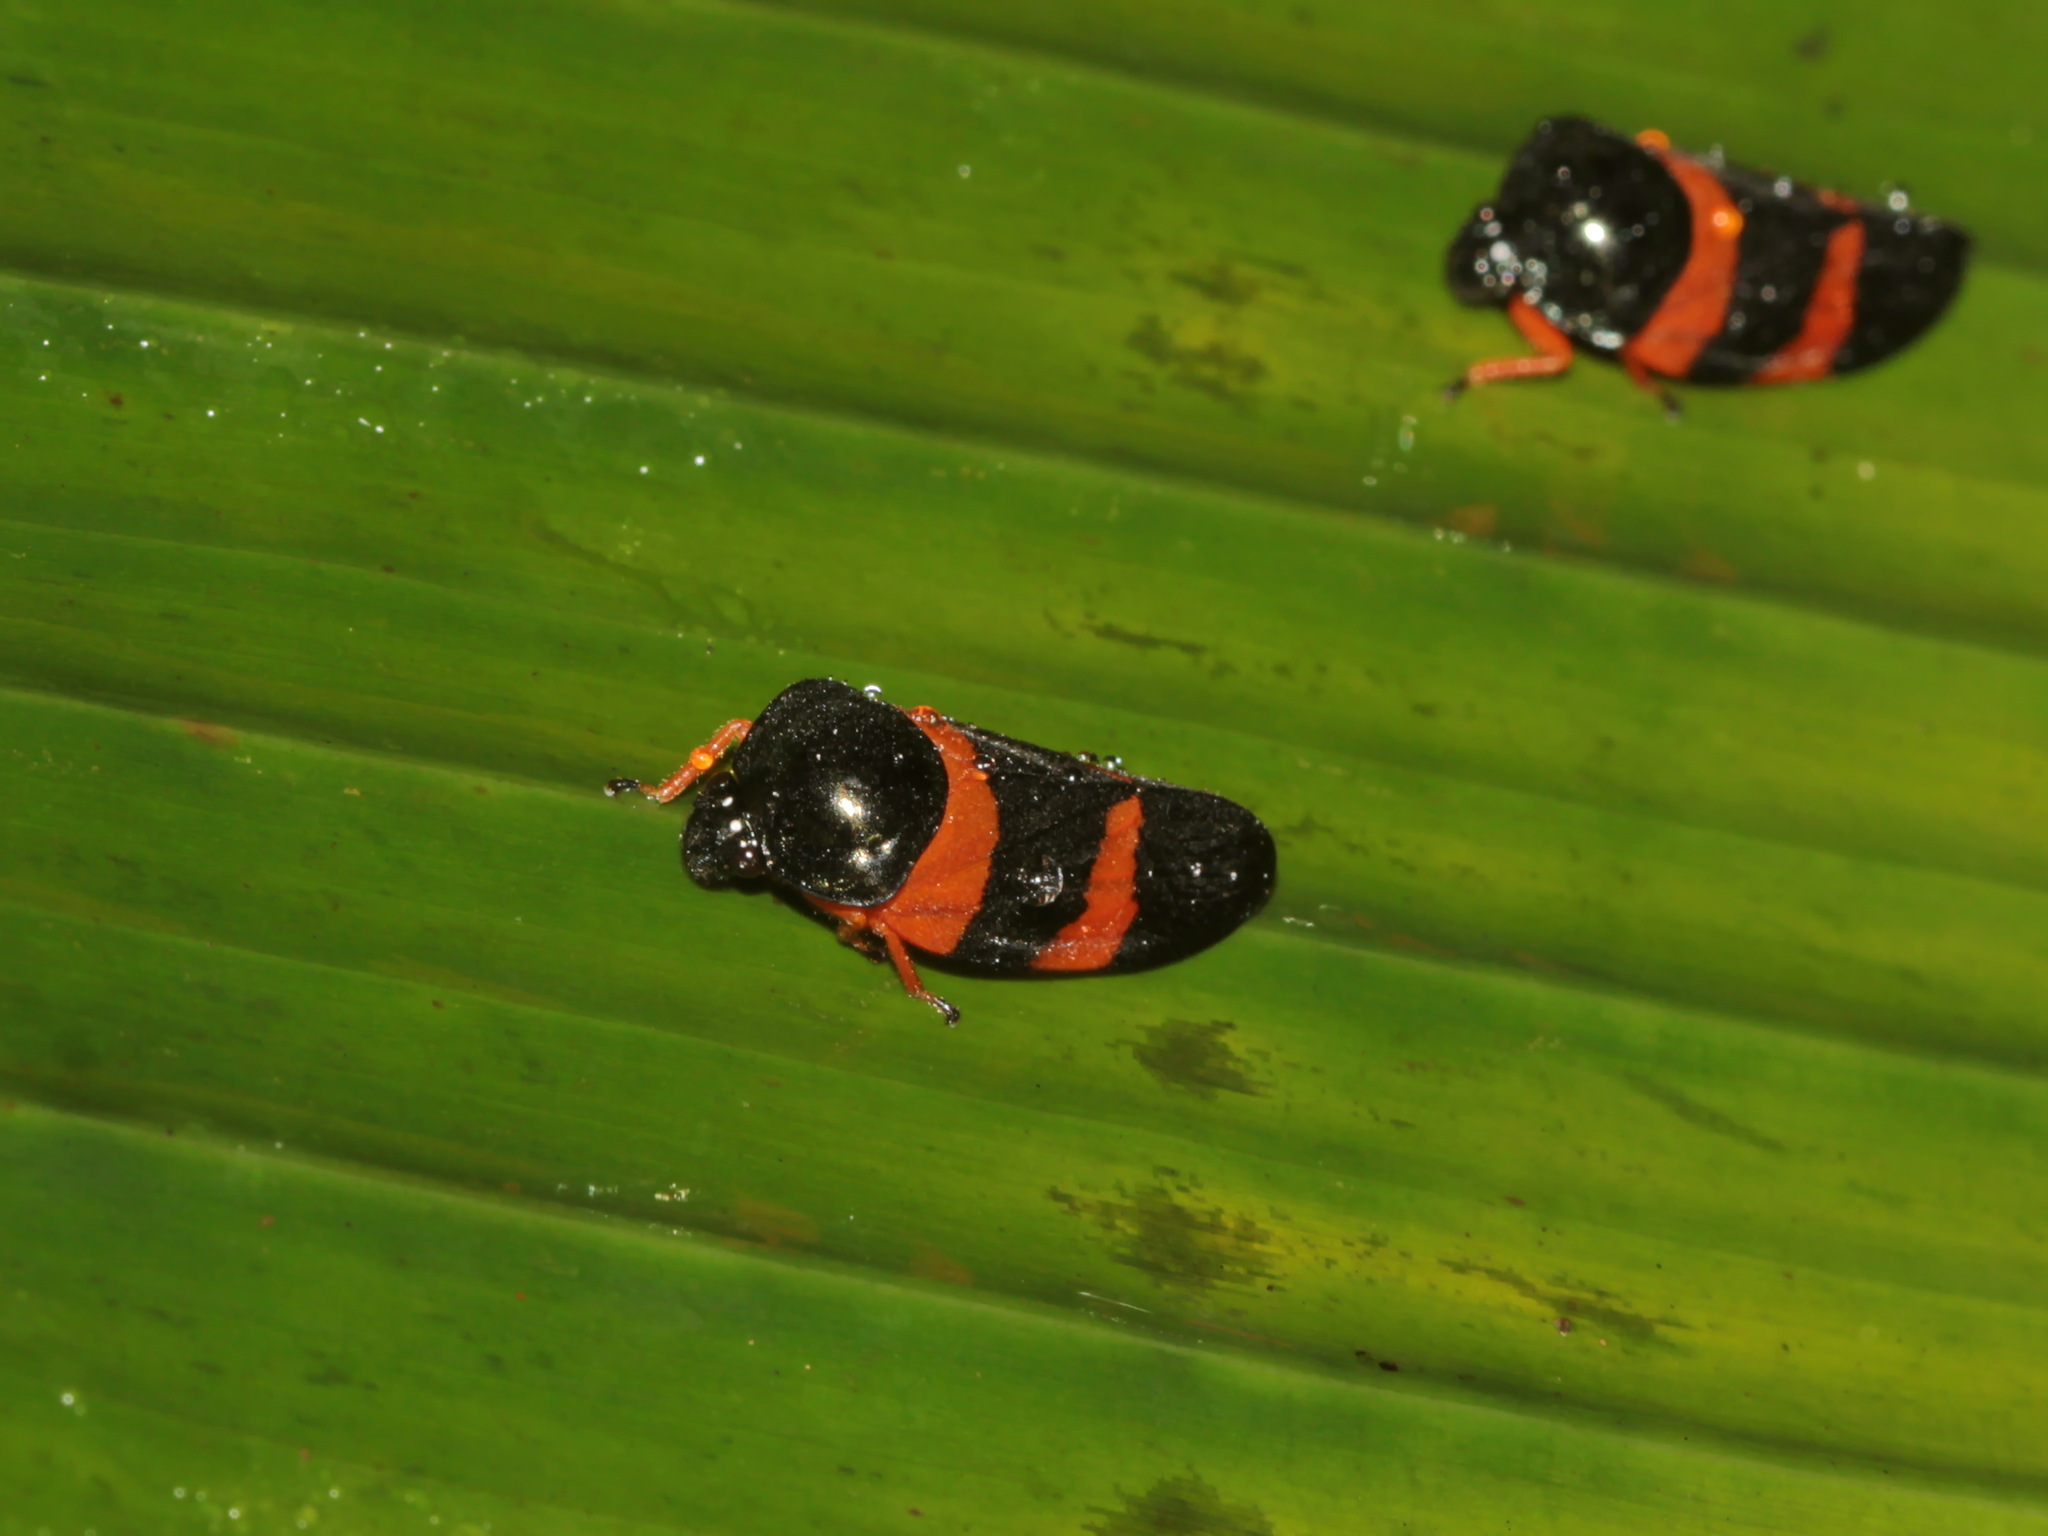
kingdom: Animalia
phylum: Arthropoda
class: Insecta
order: Hemiptera
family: Cercopidae
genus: Cosmoscarta
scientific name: Cosmoscarta chrysomelaena
